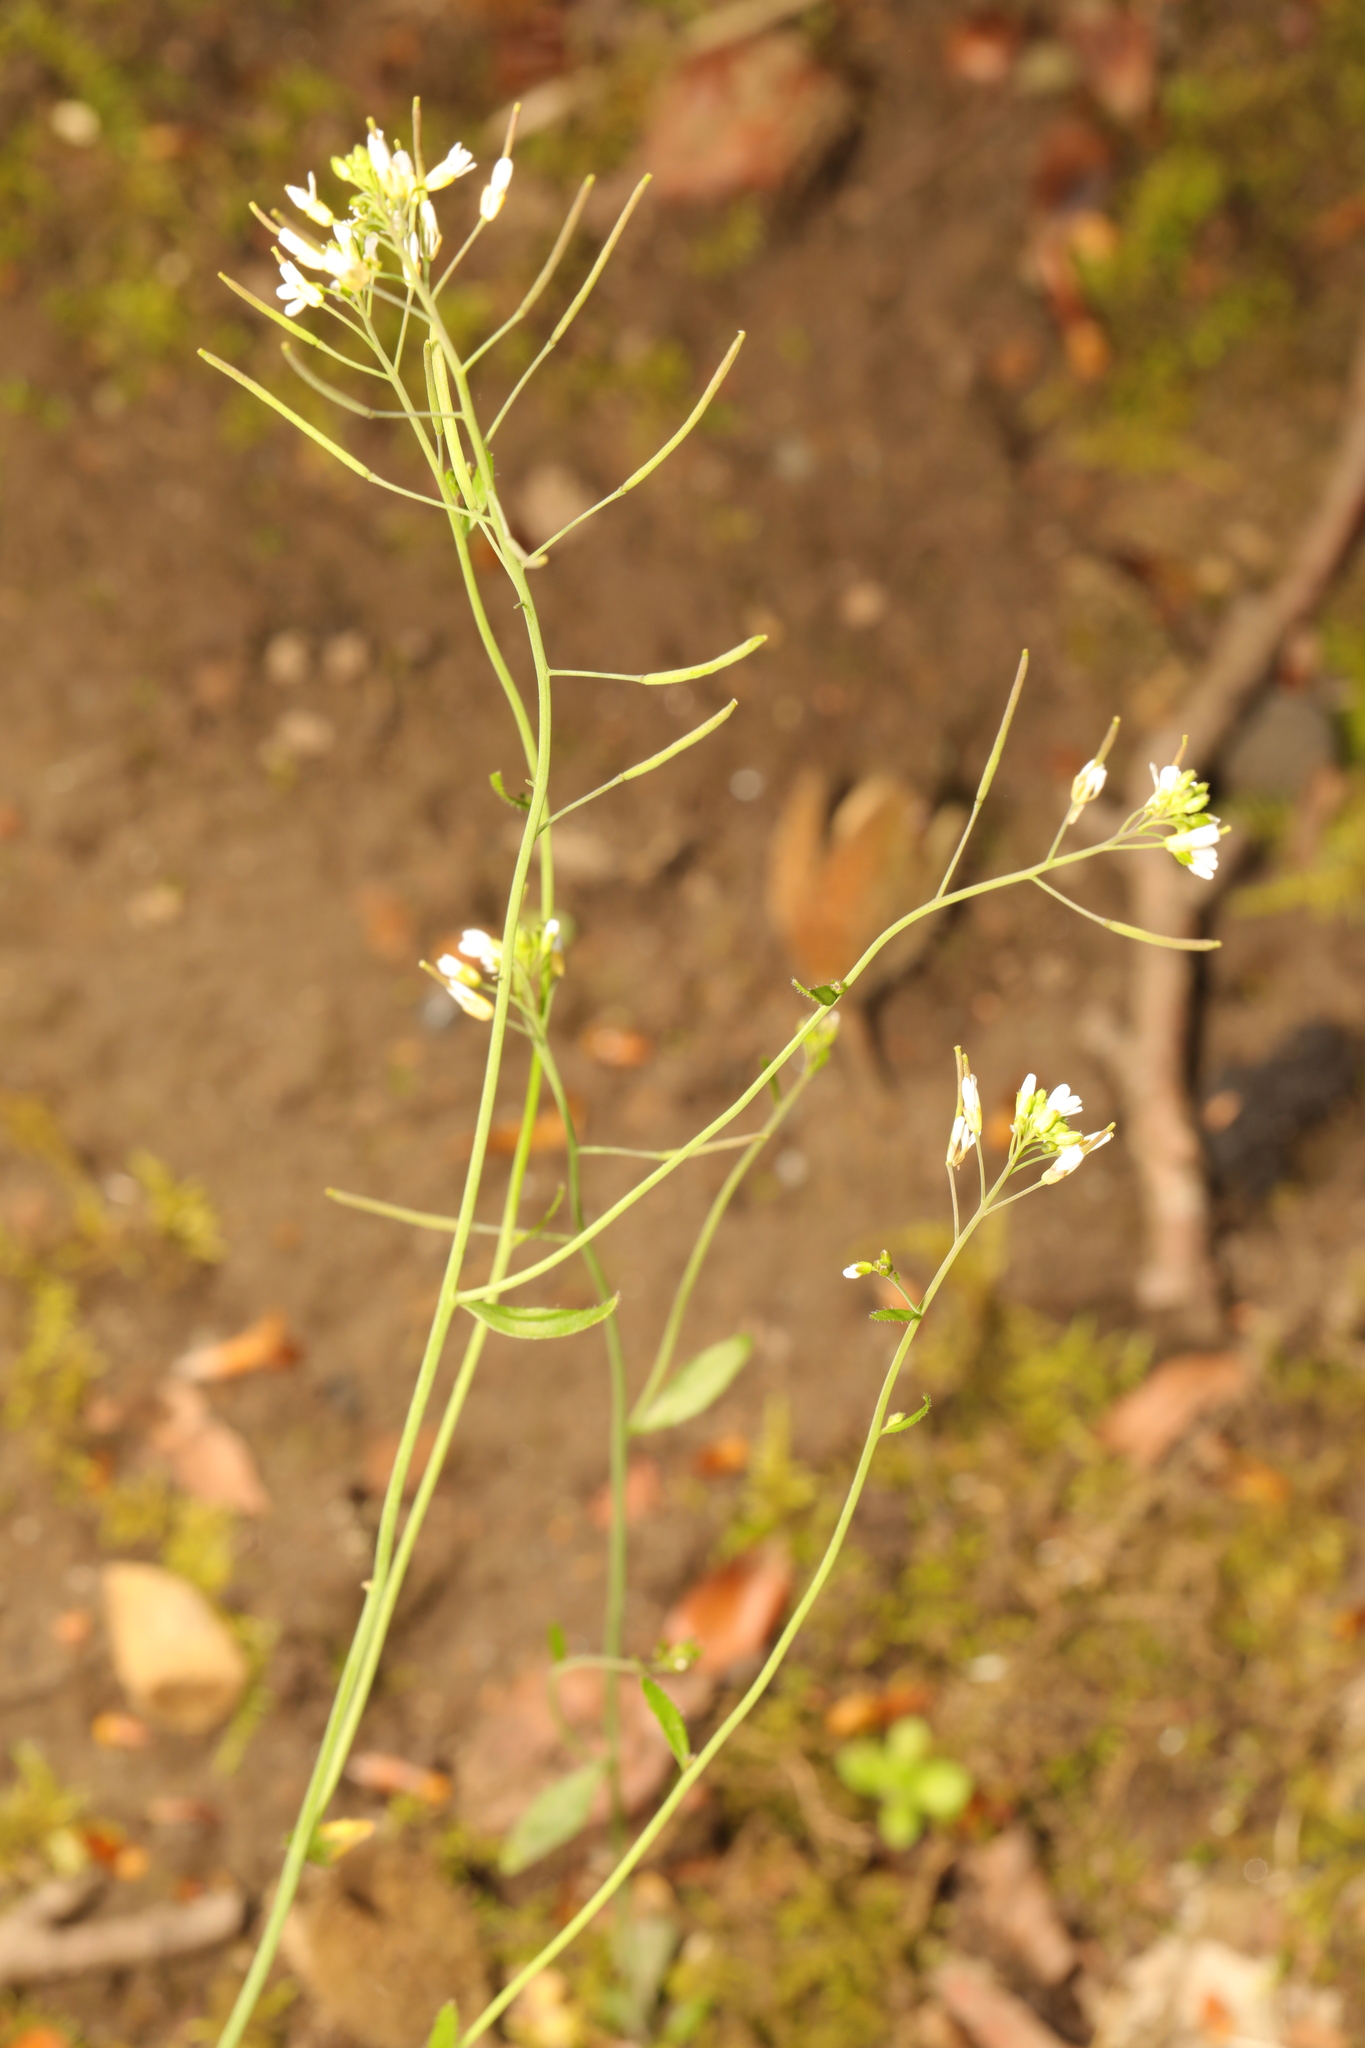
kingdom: Plantae
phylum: Tracheophyta
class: Magnoliopsida
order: Brassicales
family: Brassicaceae
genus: Arabidopsis
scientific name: Arabidopsis thaliana
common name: Thale cress
